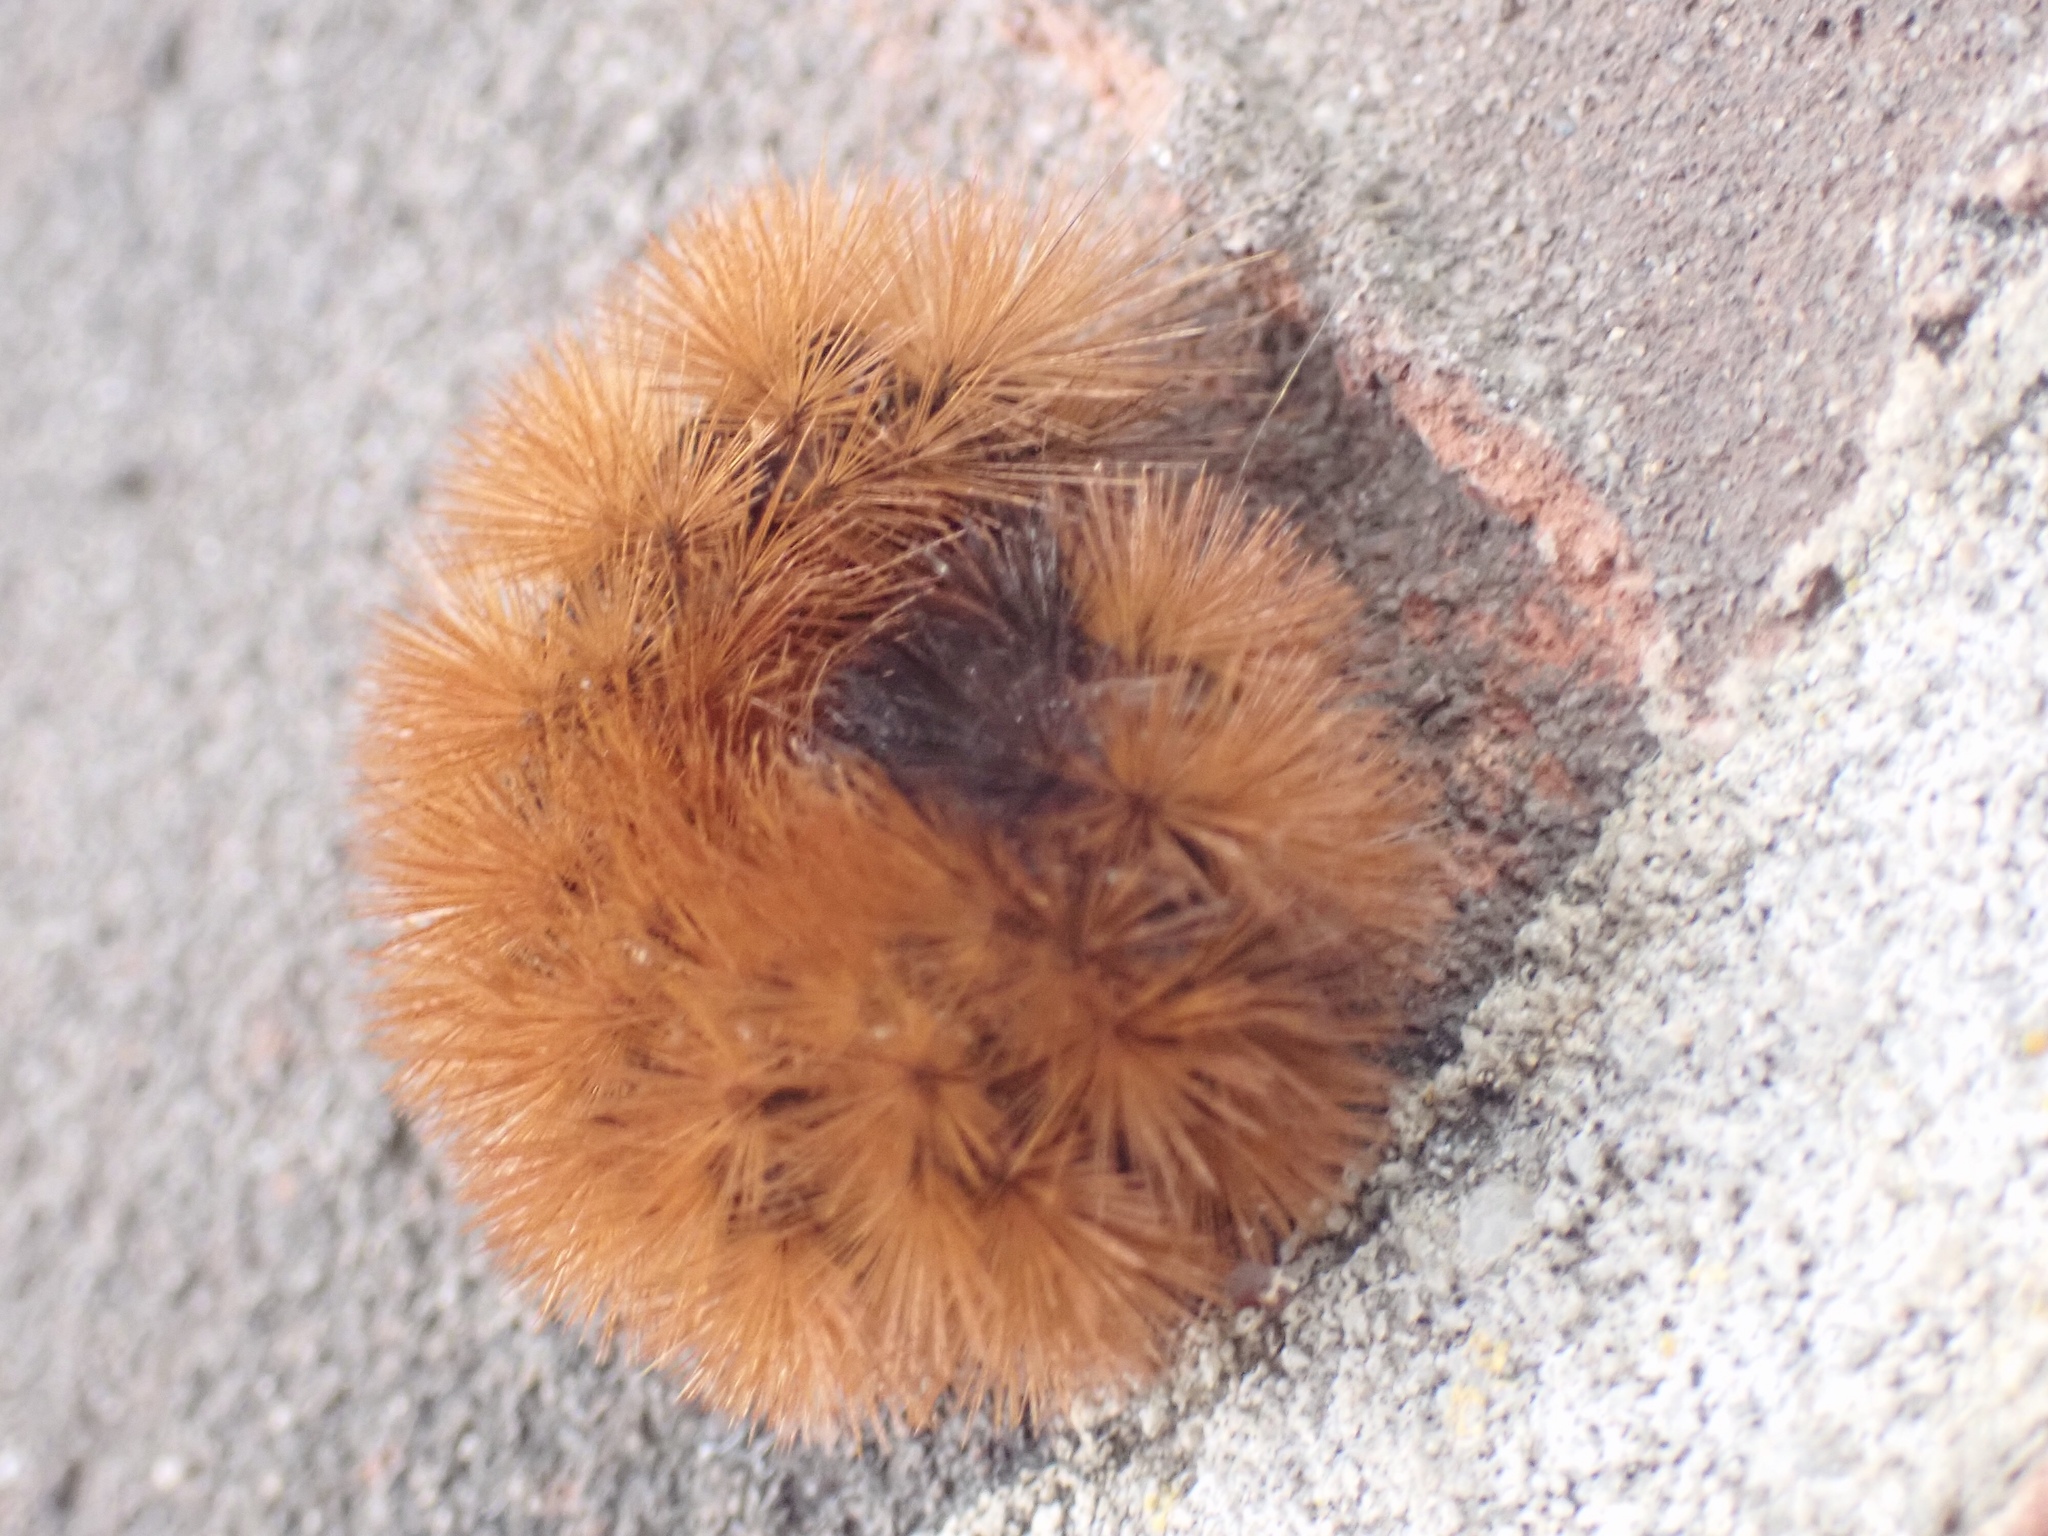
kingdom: Animalia
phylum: Arthropoda
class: Insecta
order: Lepidoptera
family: Erebidae
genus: Pyrrharctia
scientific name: Pyrrharctia isabella
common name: Isabella tiger moth
